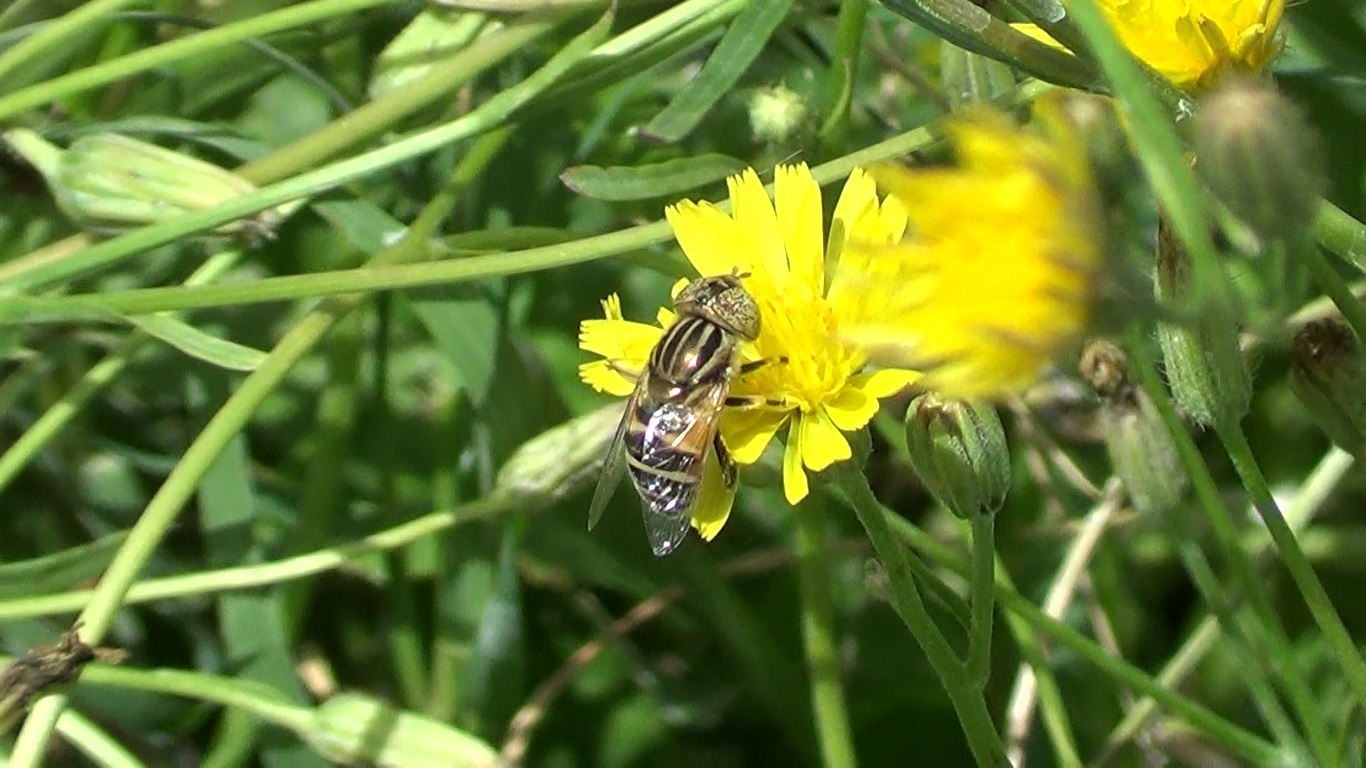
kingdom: Animalia
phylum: Arthropoda
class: Insecta
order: Diptera
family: Syrphidae
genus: Eristalinus
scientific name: Eristalinus megacephalus
